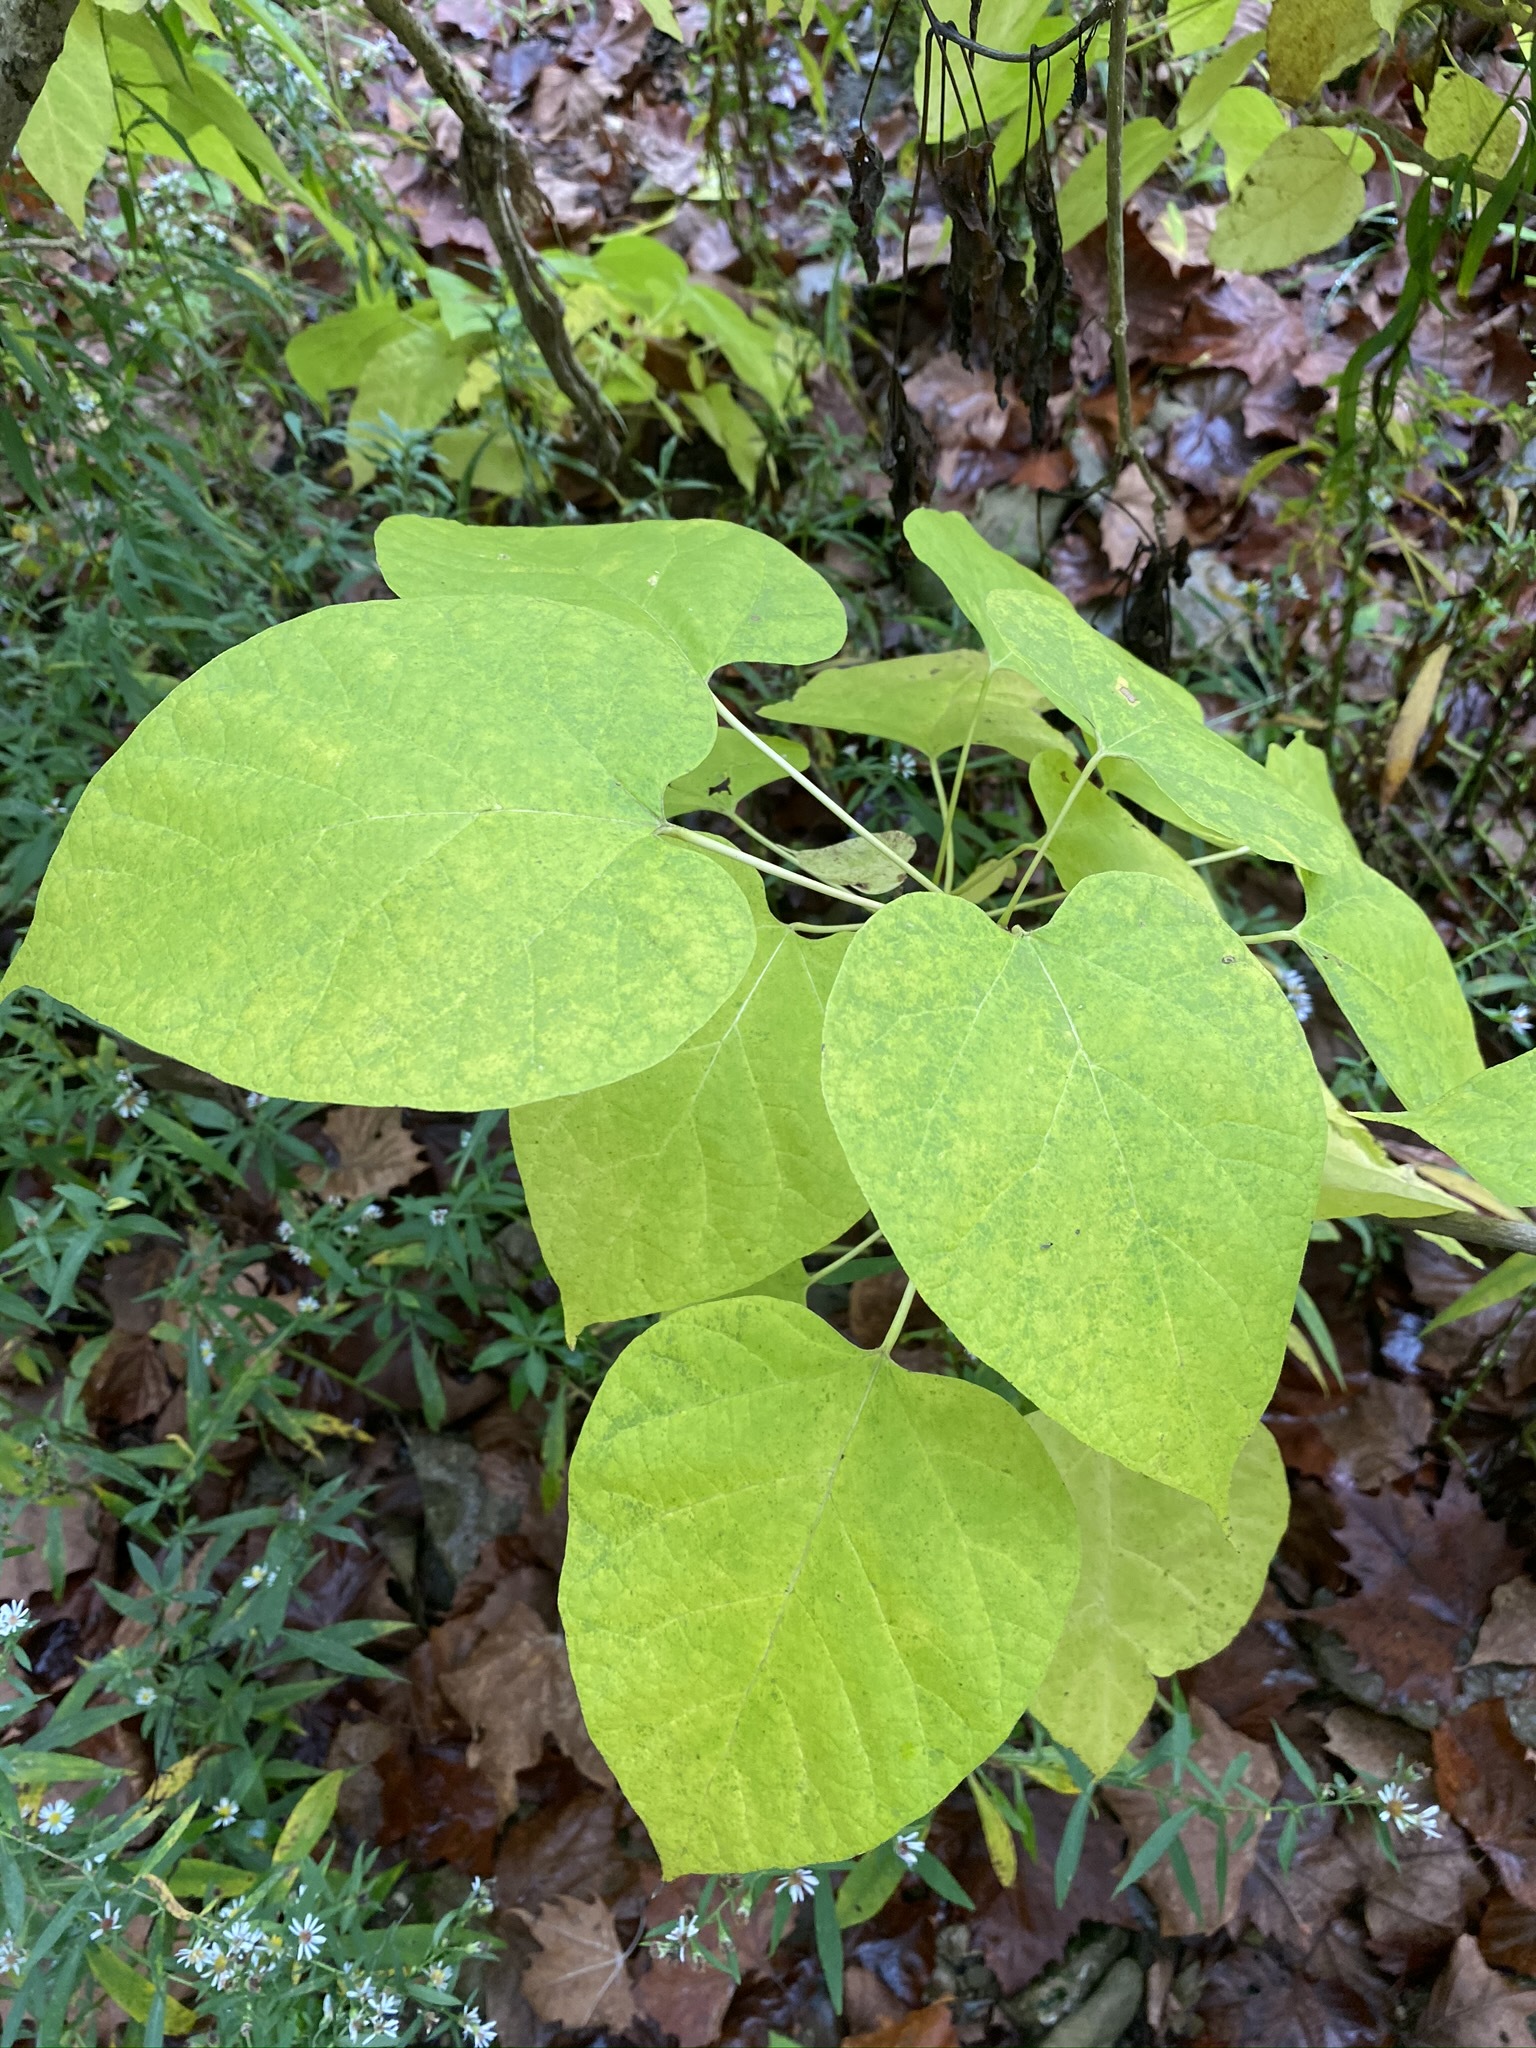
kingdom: Plantae
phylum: Tracheophyta
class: Magnoliopsida
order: Lamiales
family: Bignoniaceae
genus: Catalpa
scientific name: Catalpa speciosa
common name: Northern catalpa
